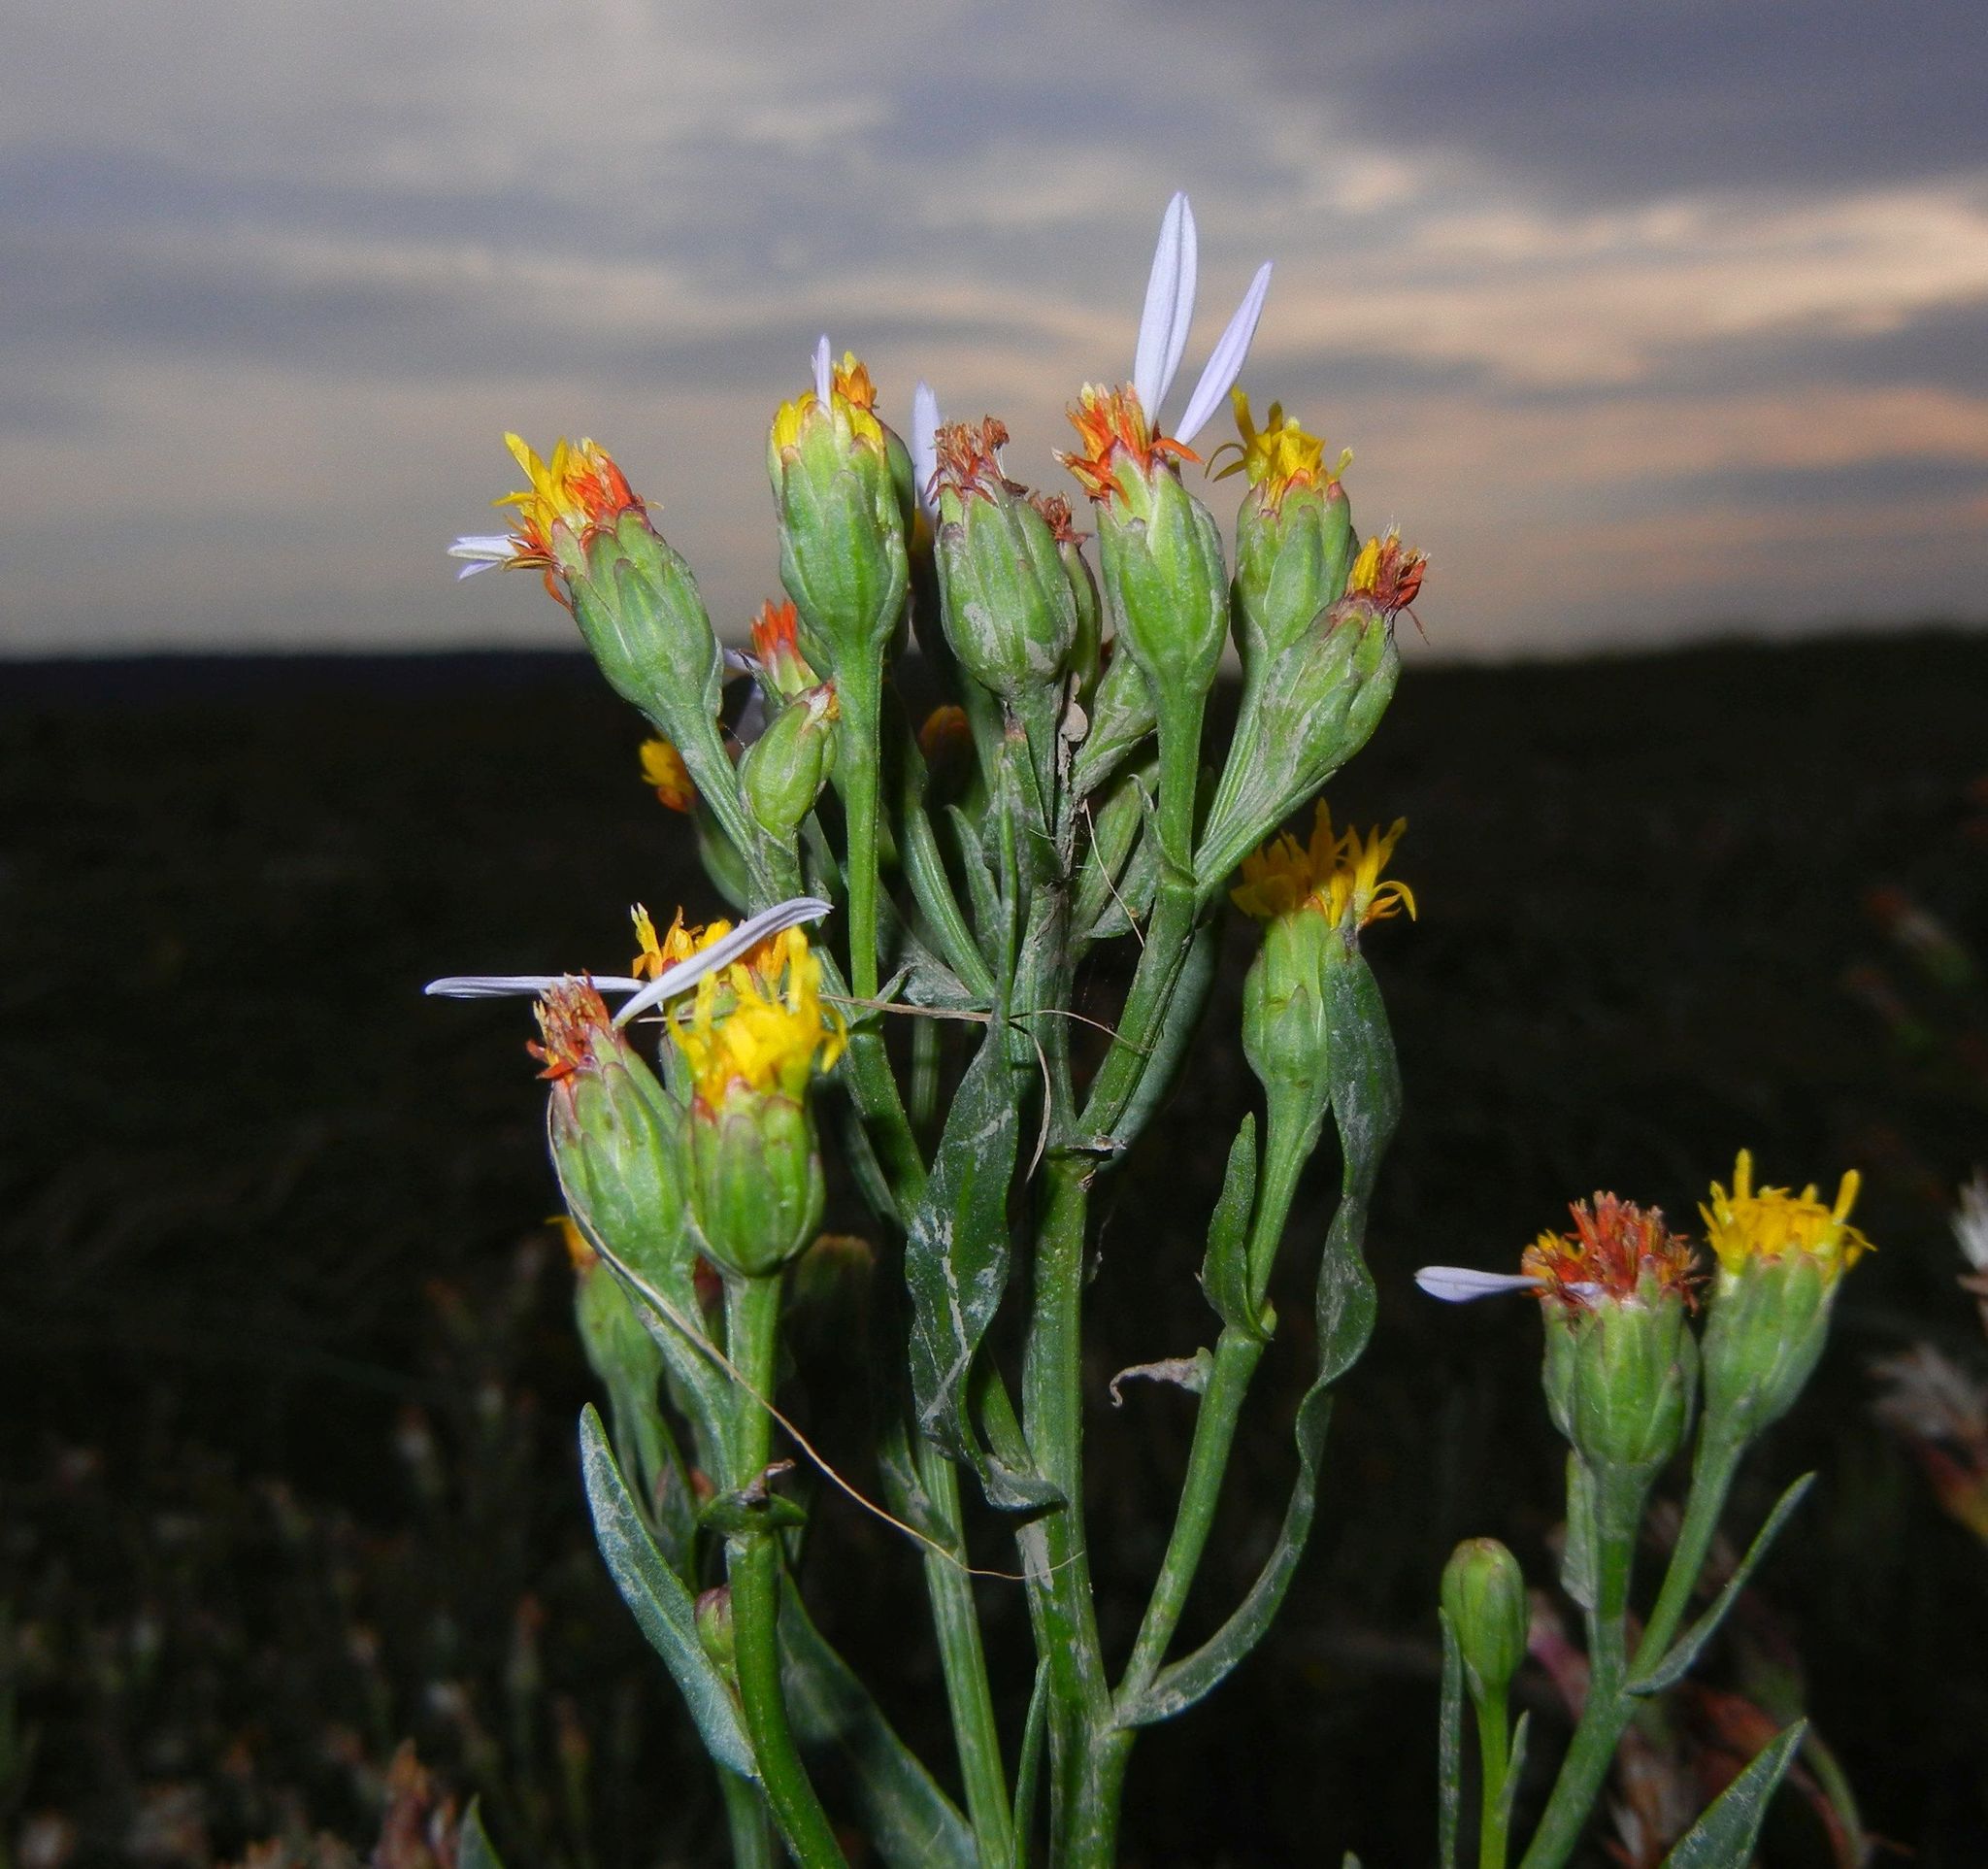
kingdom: Plantae
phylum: Tracheophyta
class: Magnoliopsida
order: Asterales
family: Asteraceae
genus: Tripolium
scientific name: Tripolium pannonicum
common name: Sea aster
